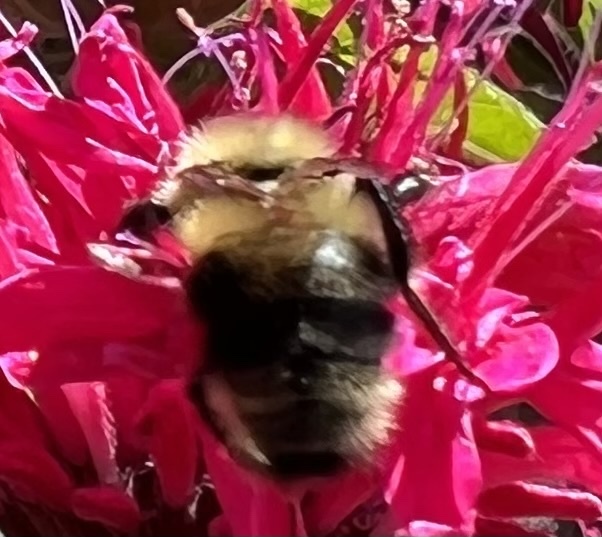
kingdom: Animalia
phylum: Arthropoda
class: Insecta
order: Hymenoptera
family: Apidae
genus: Bombus
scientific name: Bombus bimaculatus
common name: Two-spotted bumble bee
